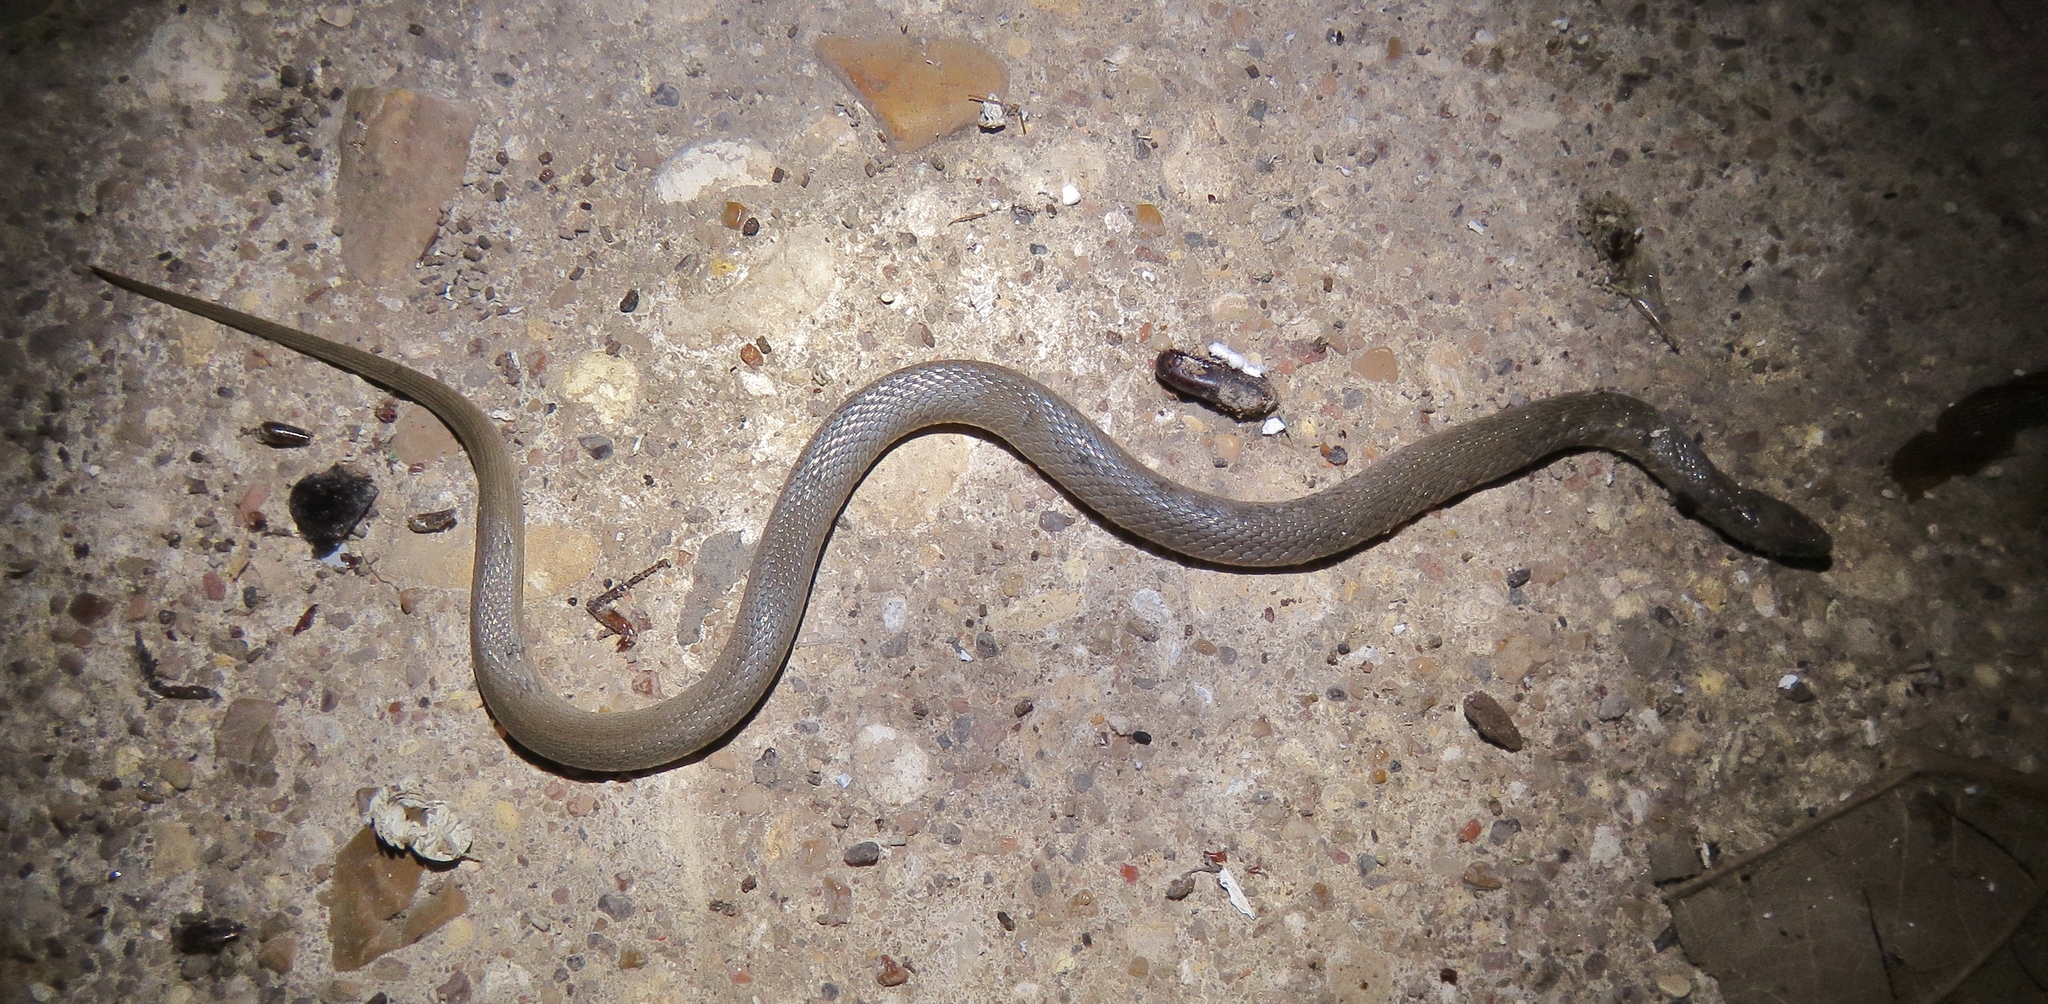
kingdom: Animalia
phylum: Chordata
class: Squamata
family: Colubridae
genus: Haldea
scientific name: Haldea striatula
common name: Rough earth snake
